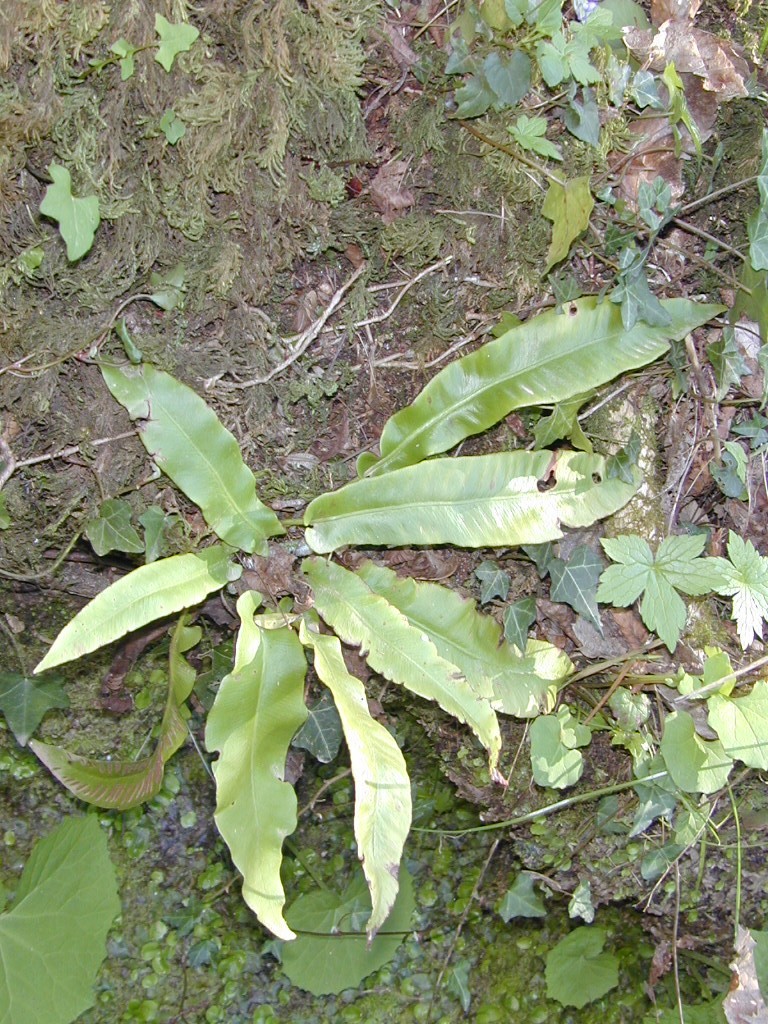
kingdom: Plantae
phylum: Tracheophyta
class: Polypodiopsida
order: Polypodiales
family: Aspleniaceae
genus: Asplenium
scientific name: Asplenium scolopendrium
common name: Hart's-tongue fern
